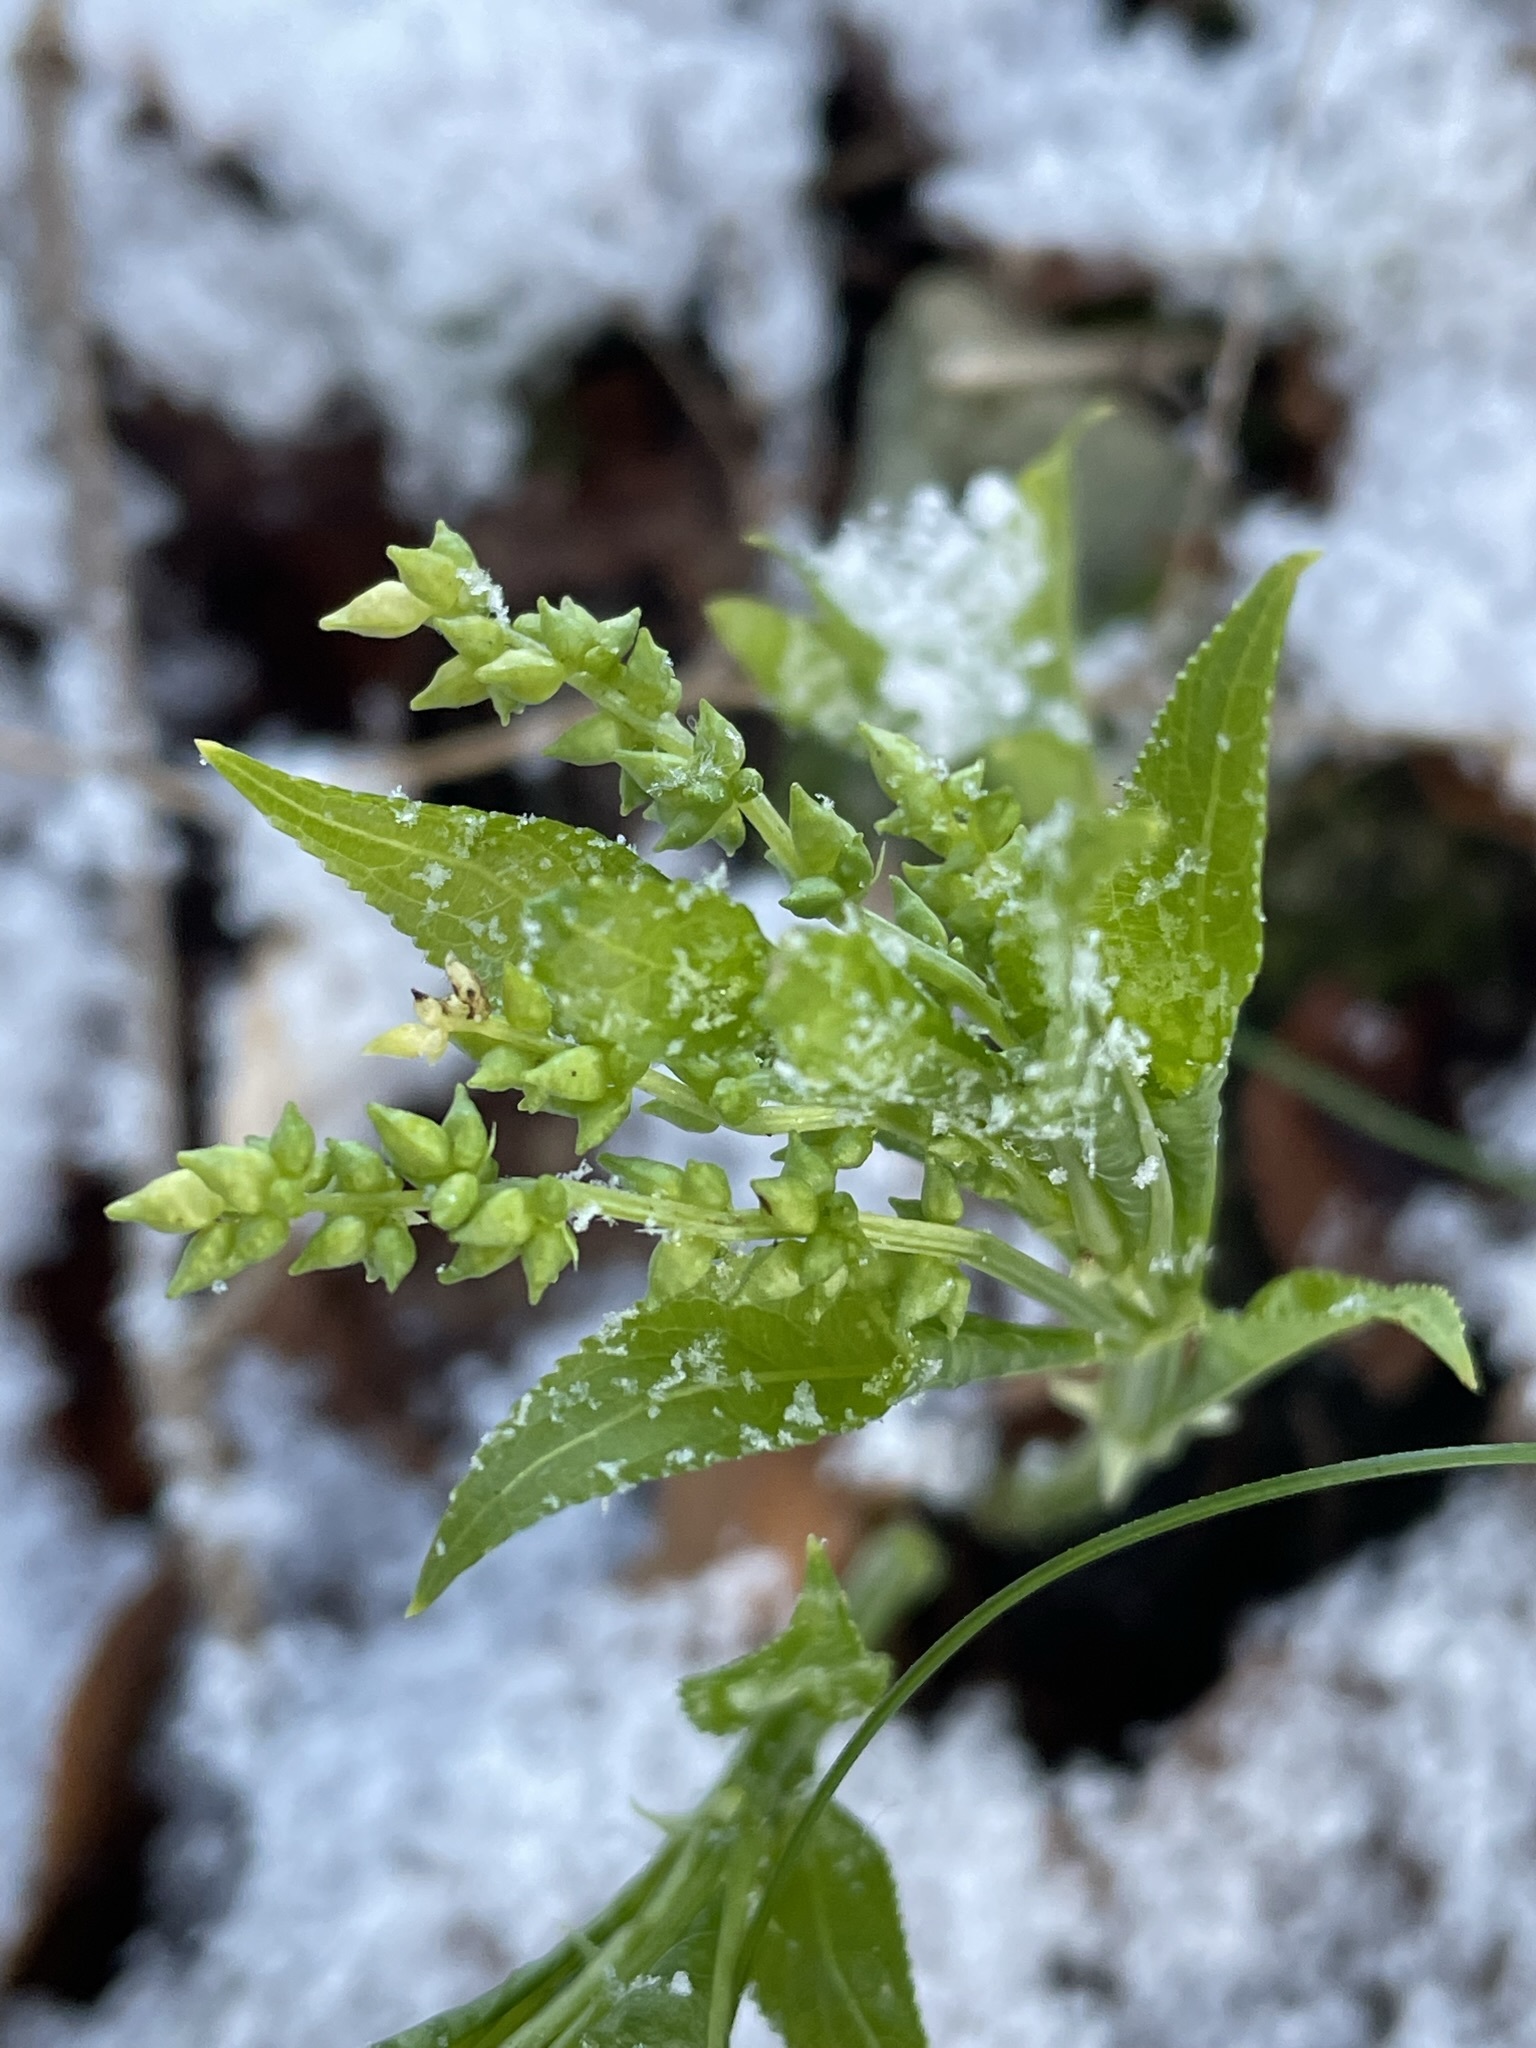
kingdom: Plantae
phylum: Tracheophyta
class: Magnoliopsida
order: Malpighiales
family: Euphorbiaceae
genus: Mercurialis
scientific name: Mercurialis perennis
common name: Dog mercury
